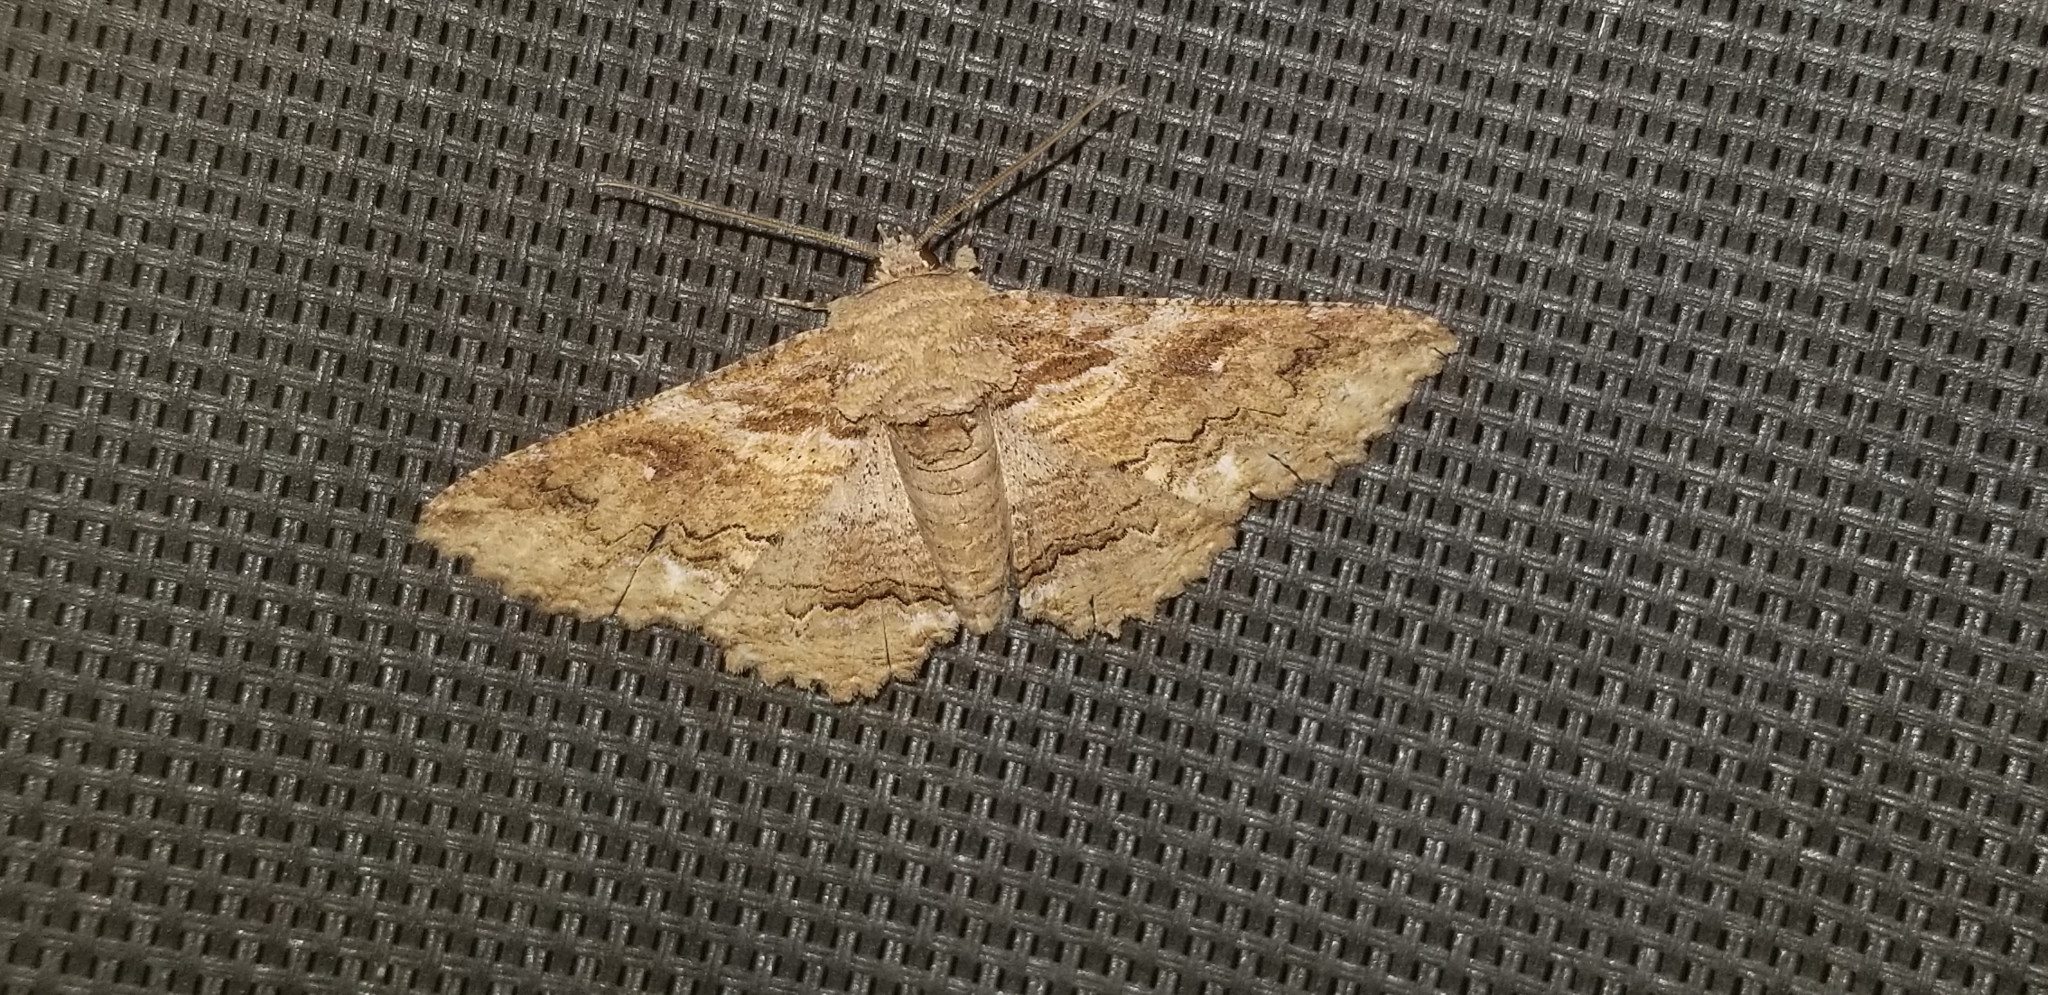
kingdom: Animalia
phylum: Arthropoda
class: Insecta
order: Lepidoptera
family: Erebidae
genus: Zale
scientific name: Zale lunata
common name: Lunate zale moth
